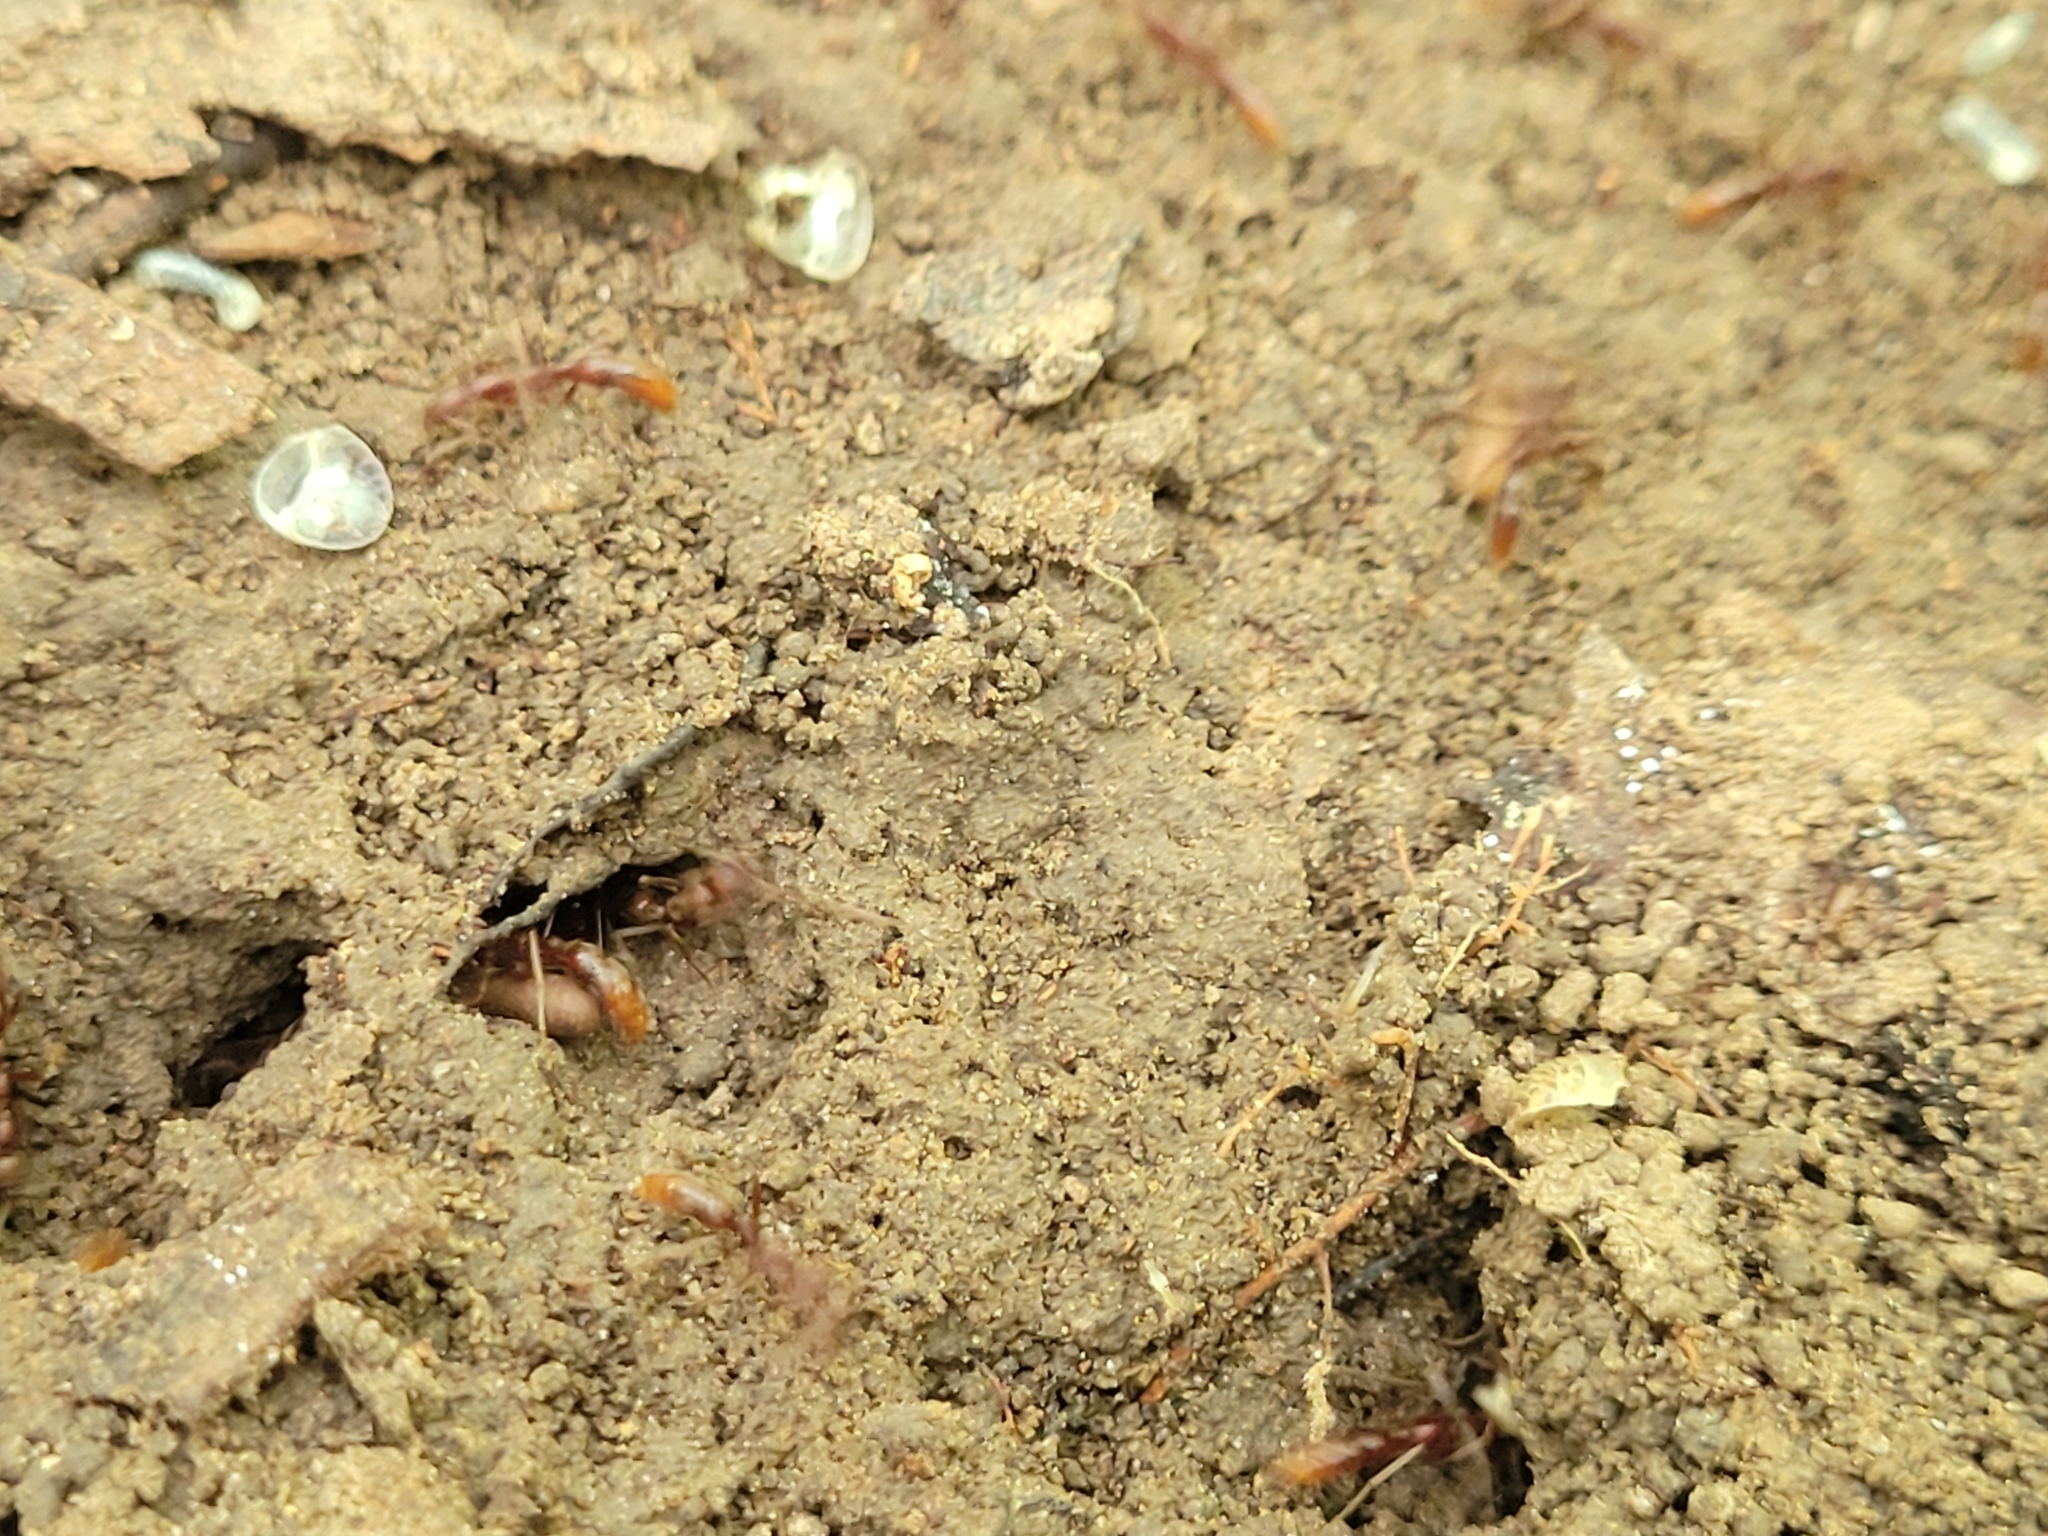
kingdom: Animalia
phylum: Arthropoda
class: Insecta
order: Hymenoptera
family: Formicidae
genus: Leptogenys
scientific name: Leptogenys elongata
